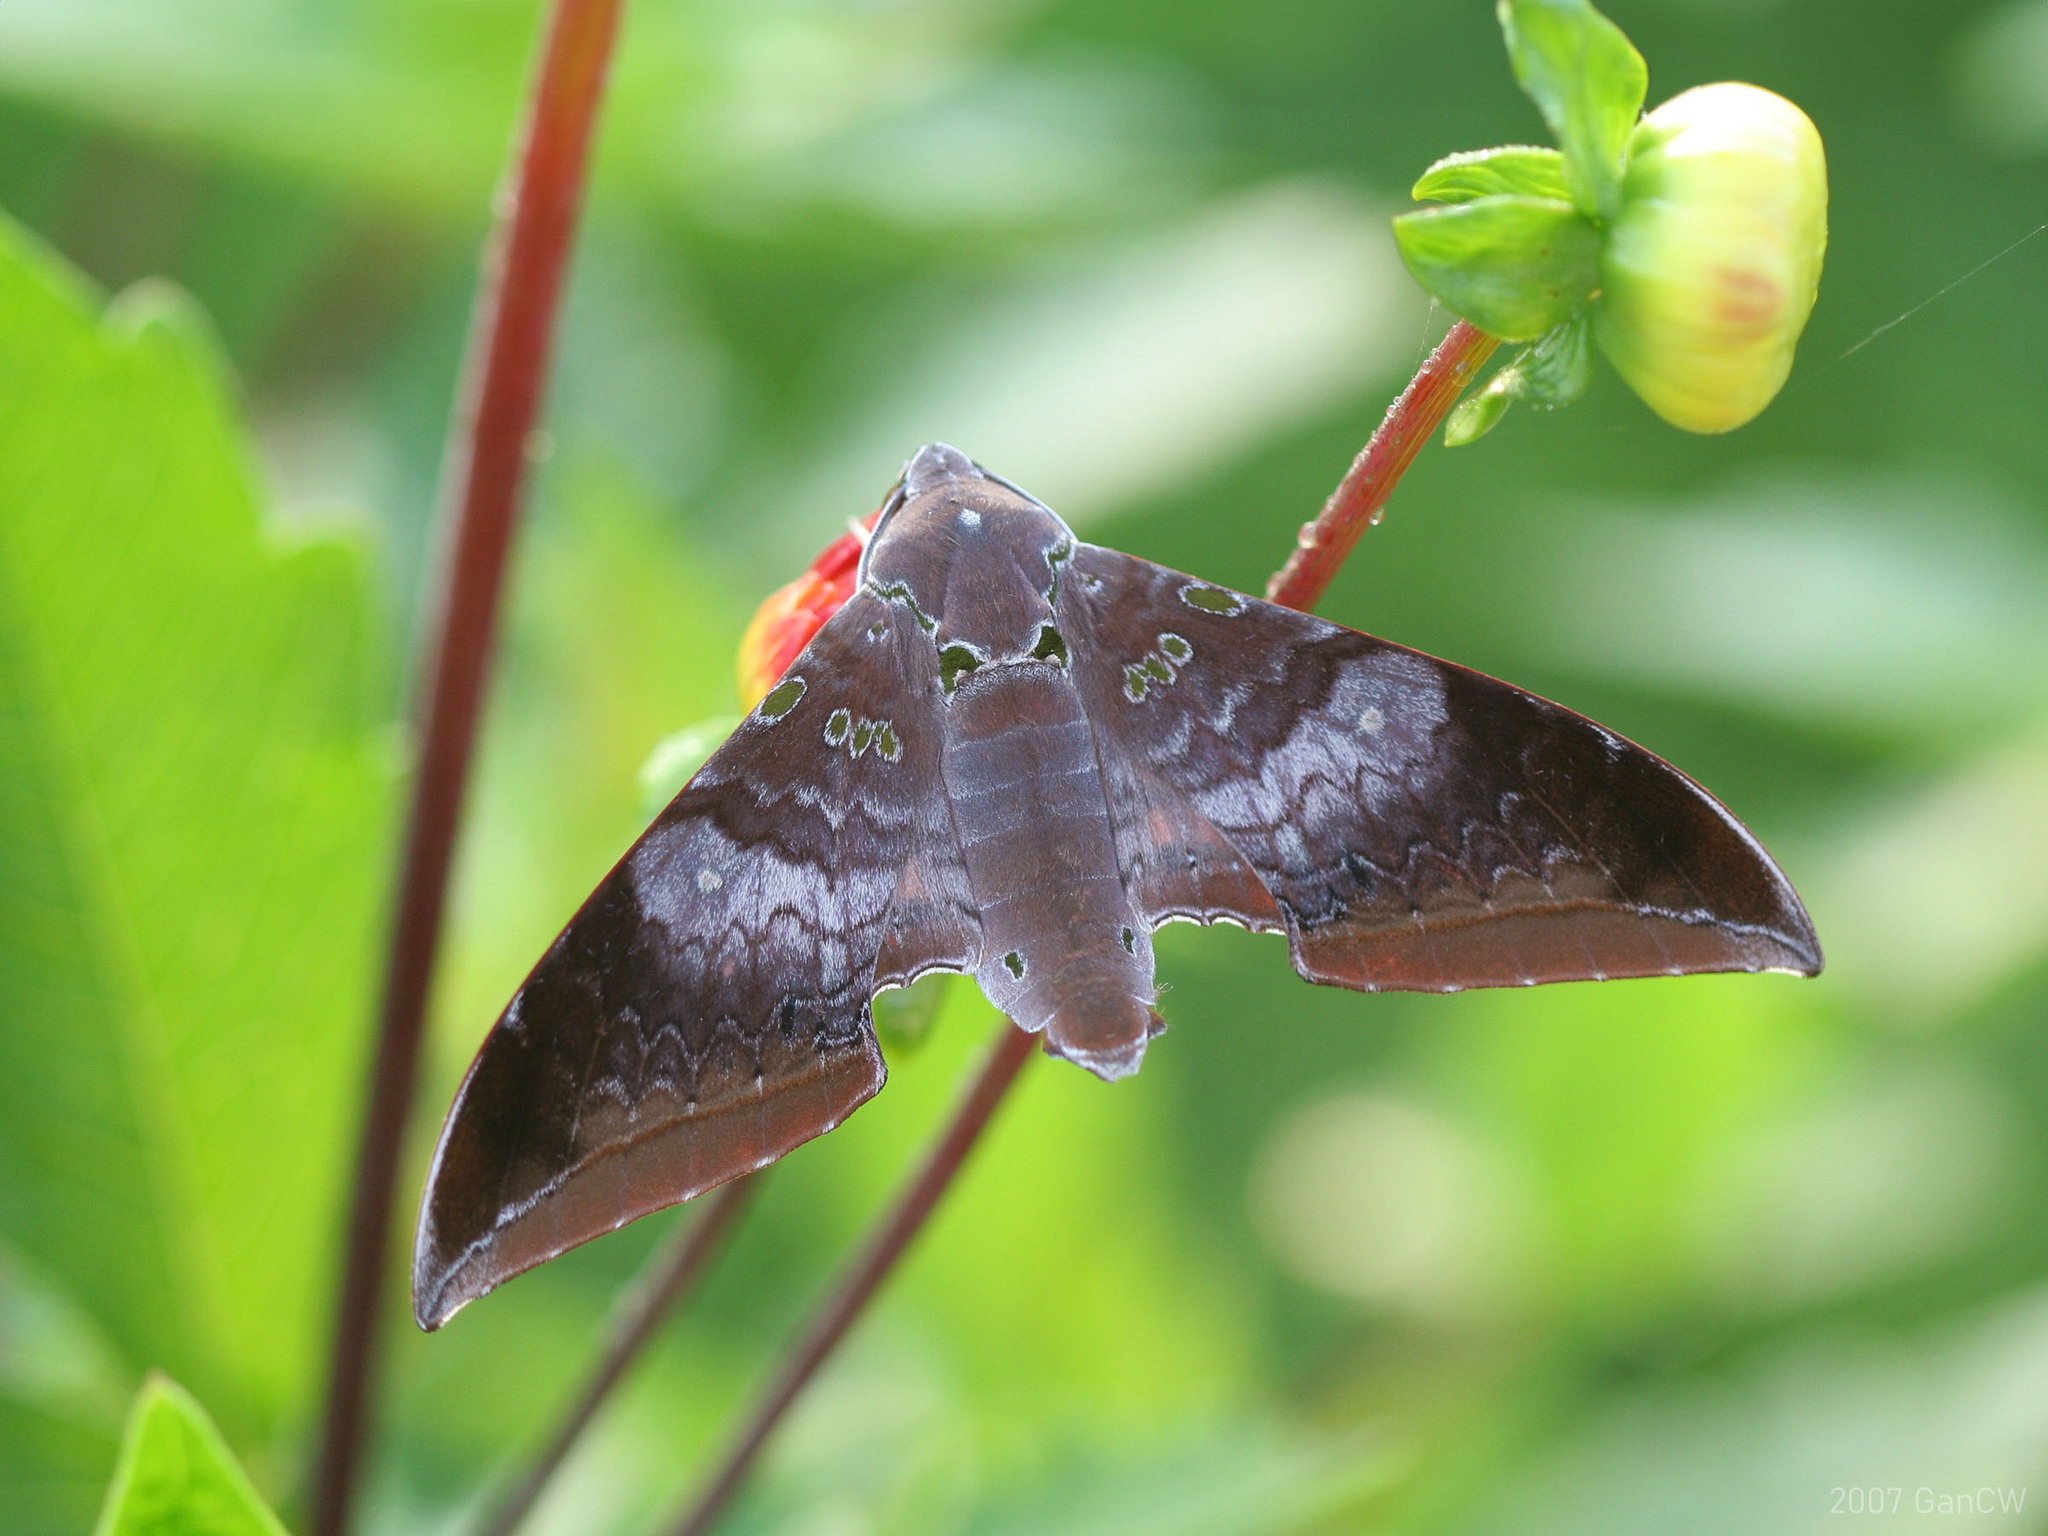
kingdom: Animalia
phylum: Arthropoda
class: Insecta
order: Lepidoptera
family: Sphingidae
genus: Ambulyx
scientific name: Ambulyx moorei
